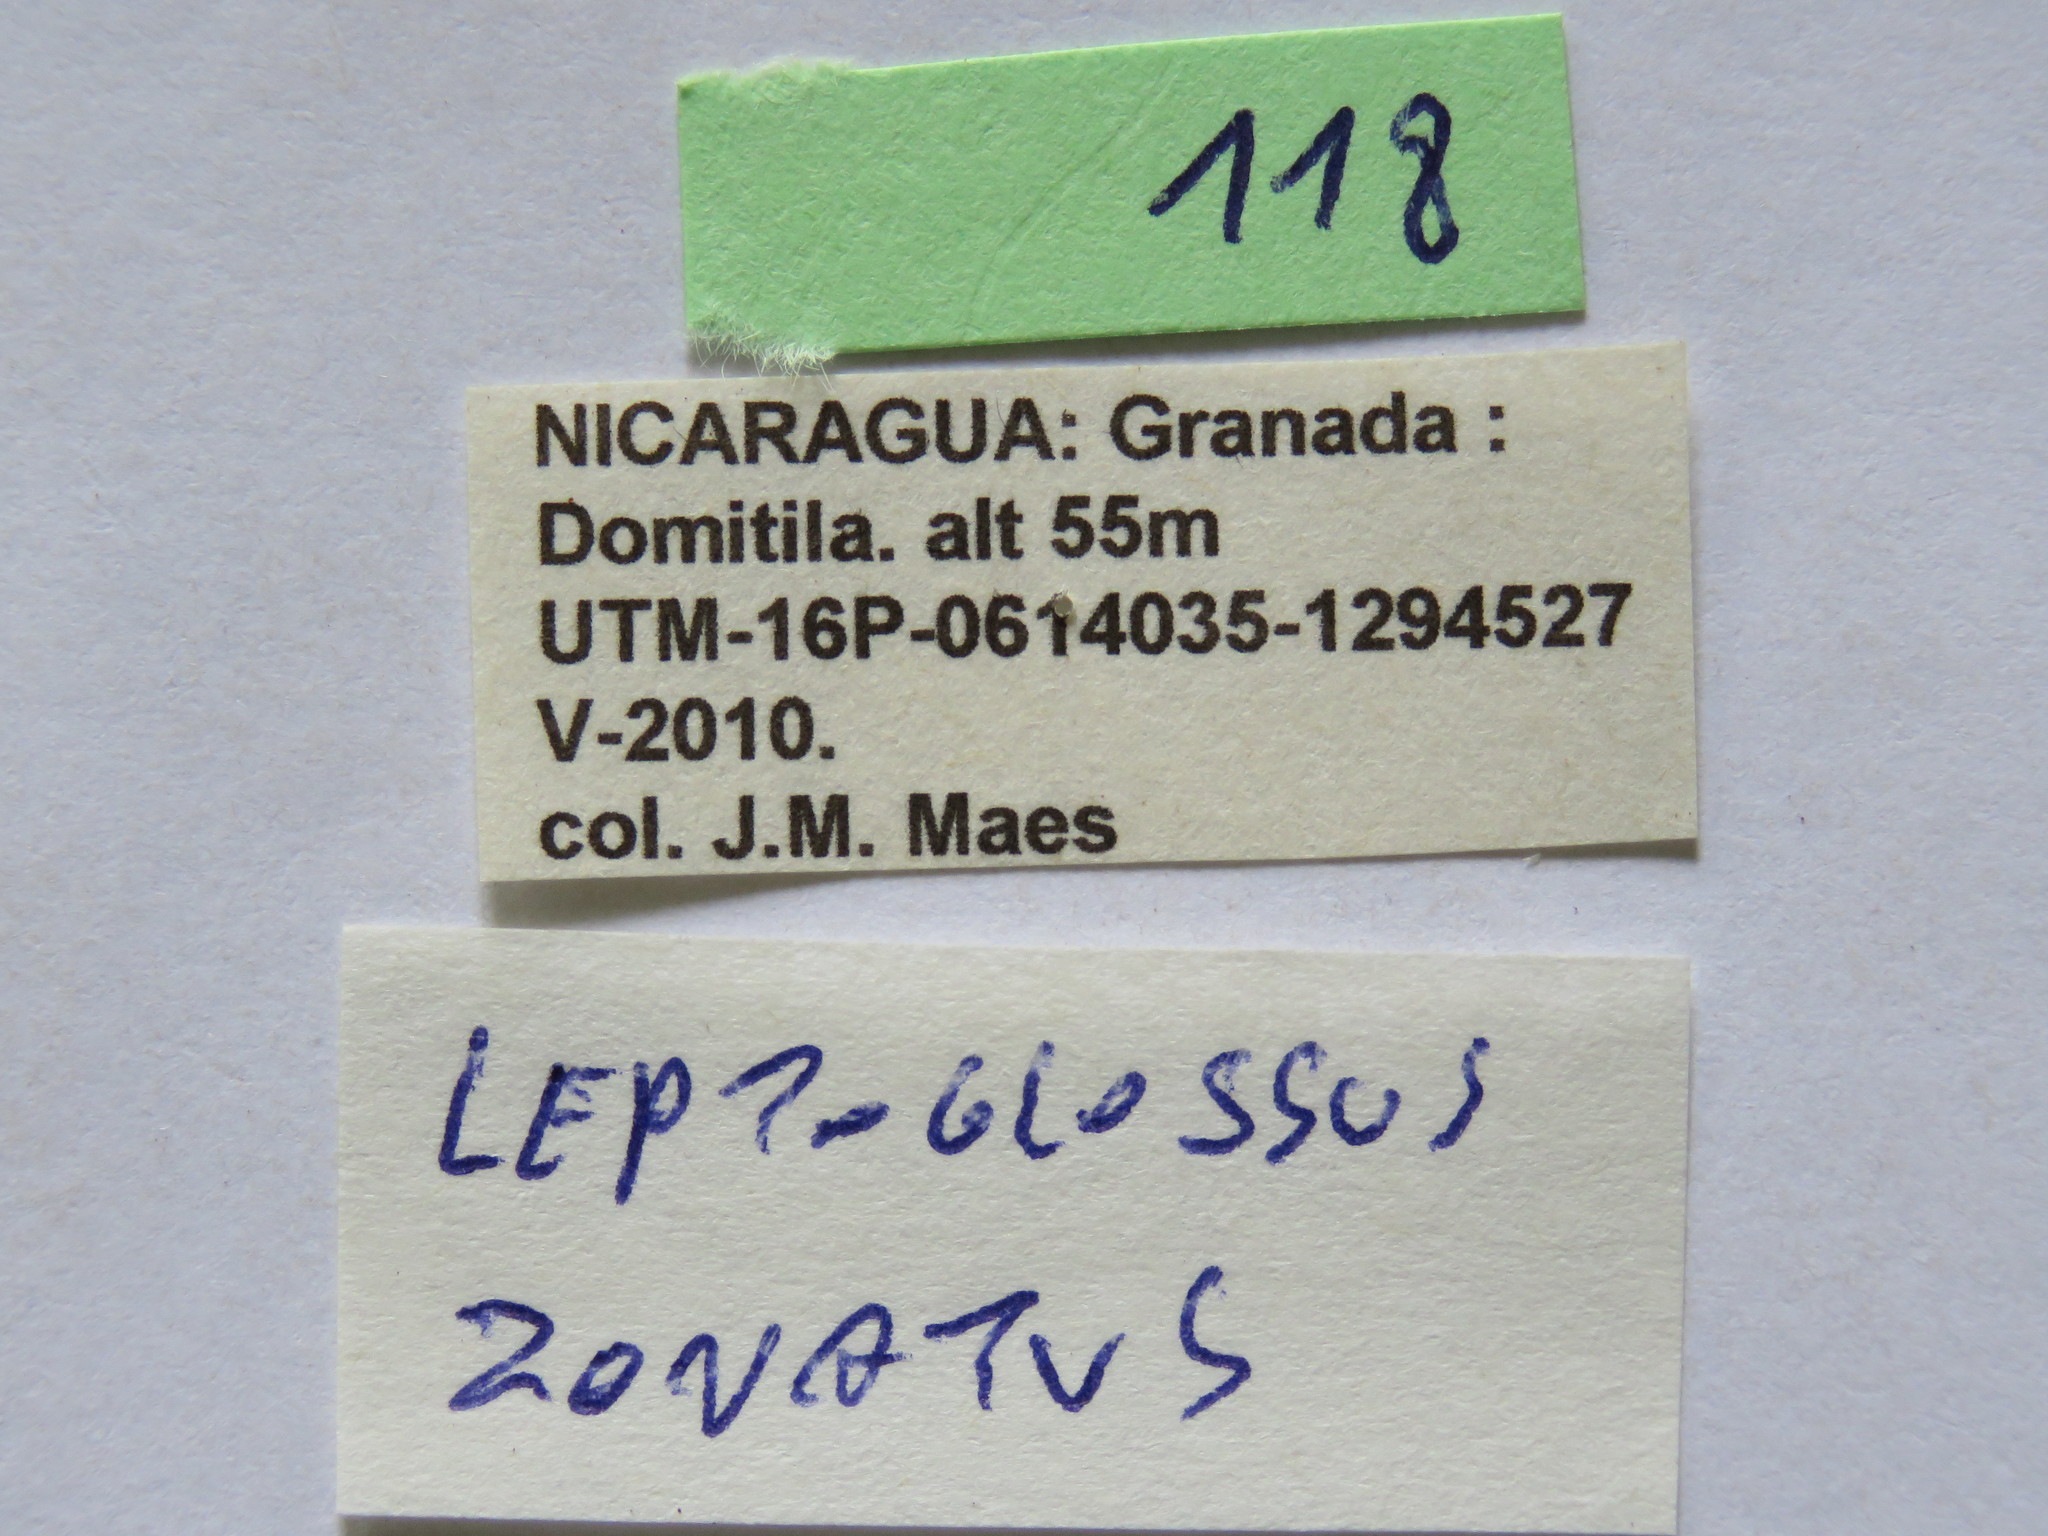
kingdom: Animalia
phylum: Arthropoda
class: Insecta
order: Hemiptera
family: Coreidae
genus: Leptoglossus
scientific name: Leptoglossus zonatus
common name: Large-legged bug
